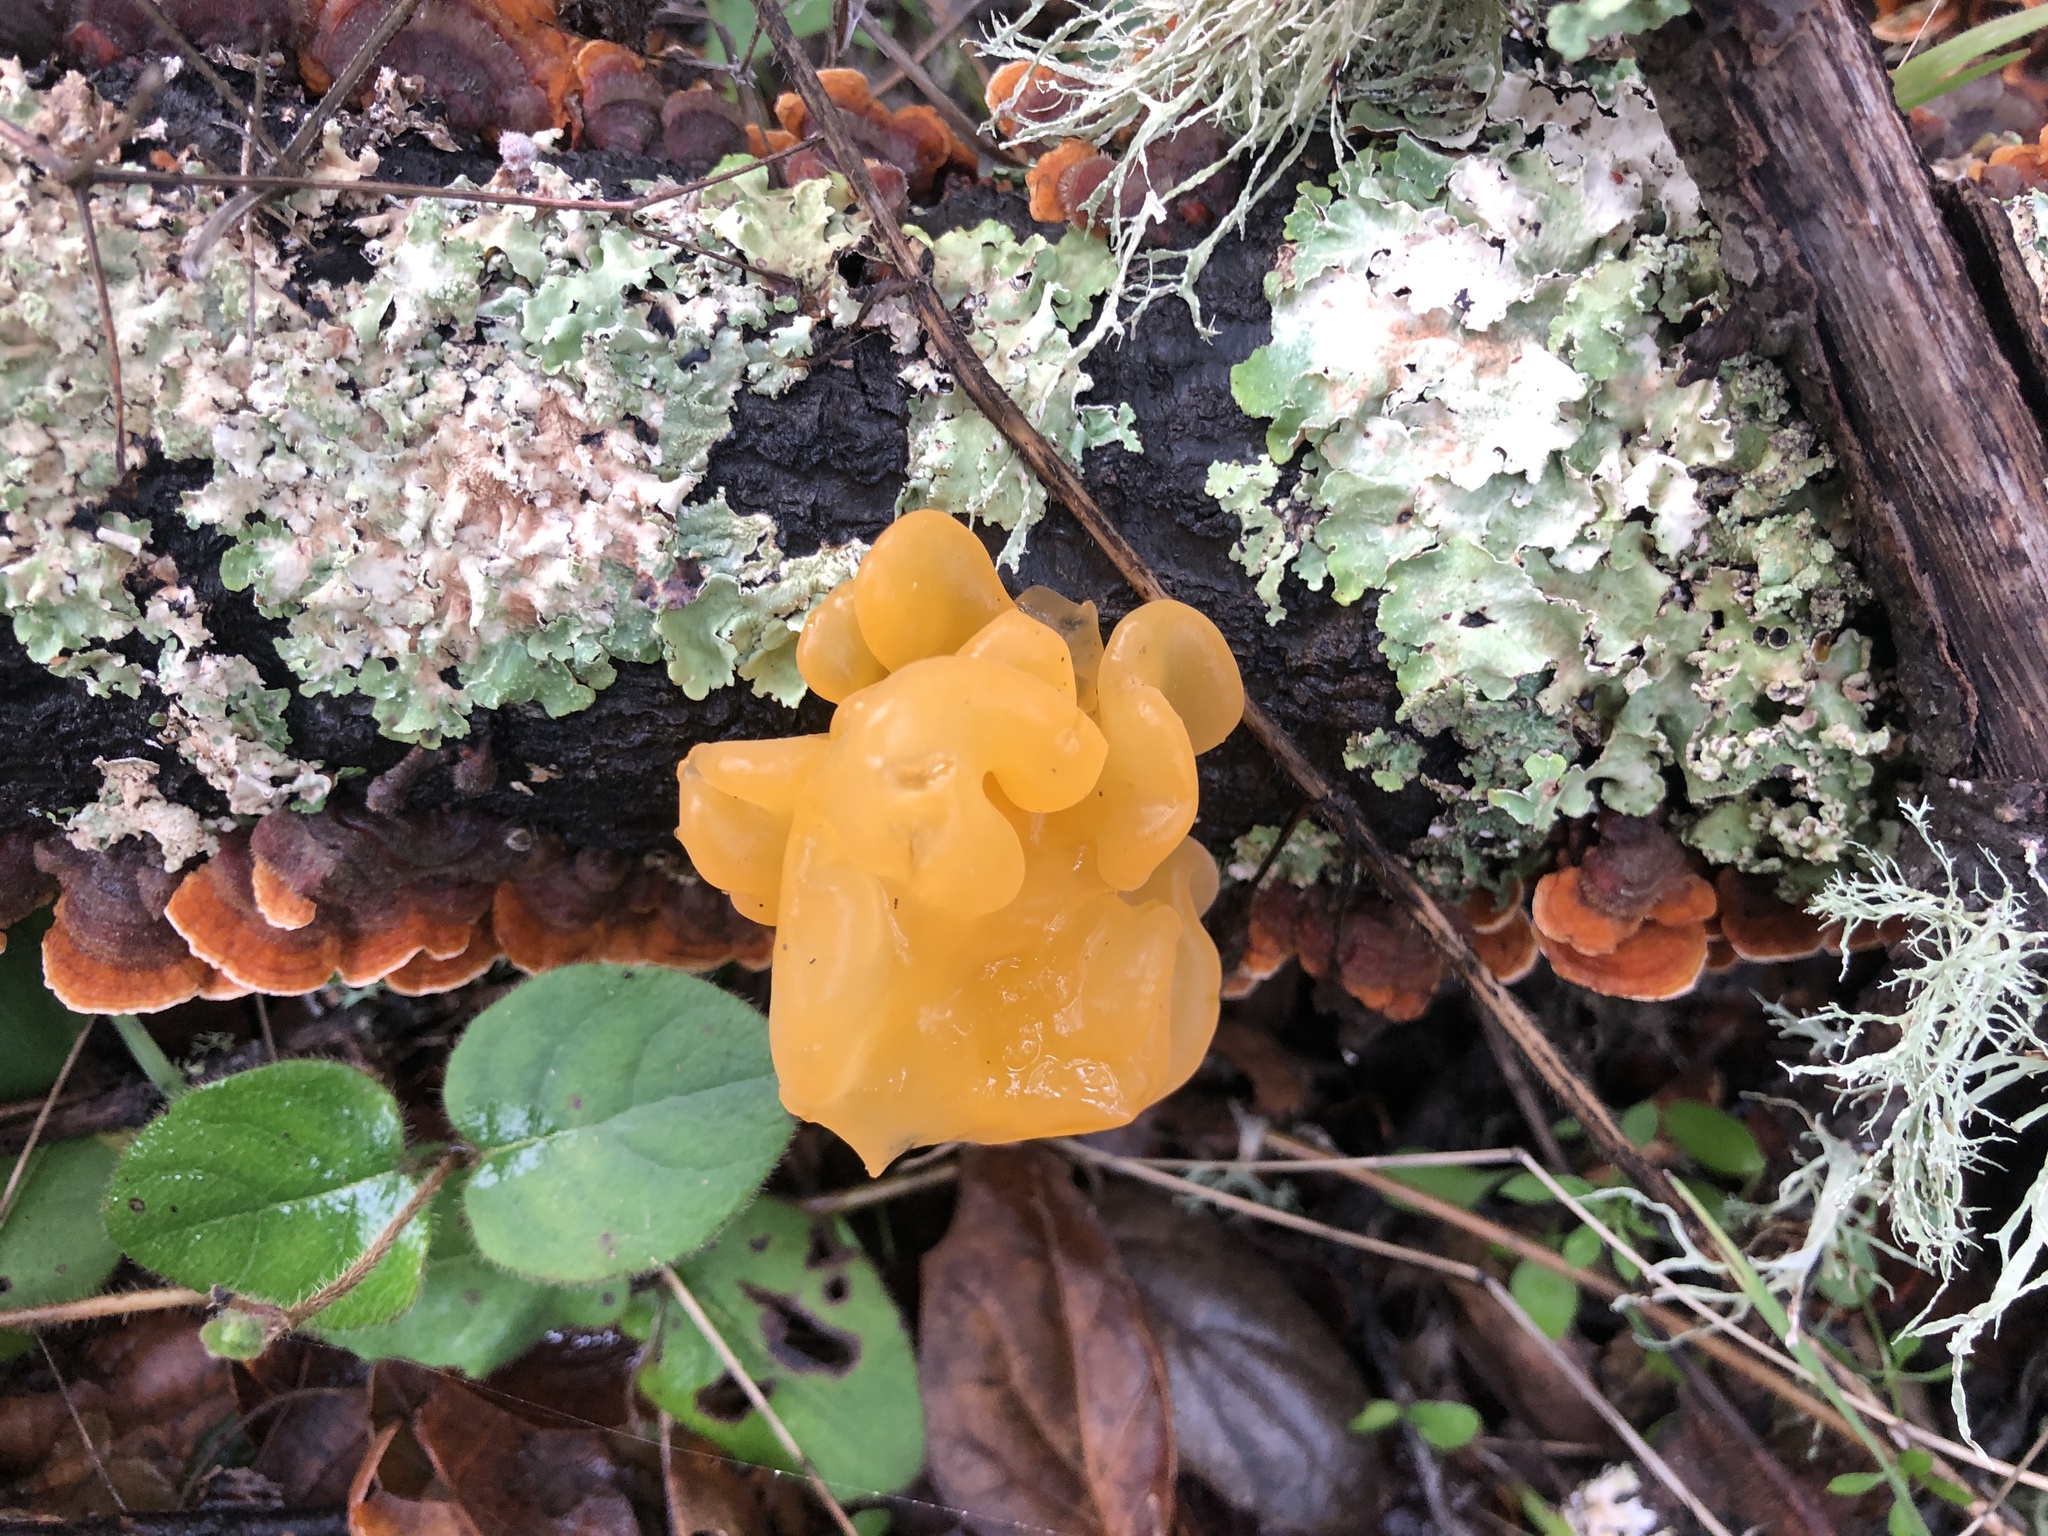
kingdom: Fungi
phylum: Basidiomycota
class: Tremellomycetes
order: Tremellales
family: Naemateliaceae
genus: Naematelia
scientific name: Naematelia aurantia
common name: Golden ear
